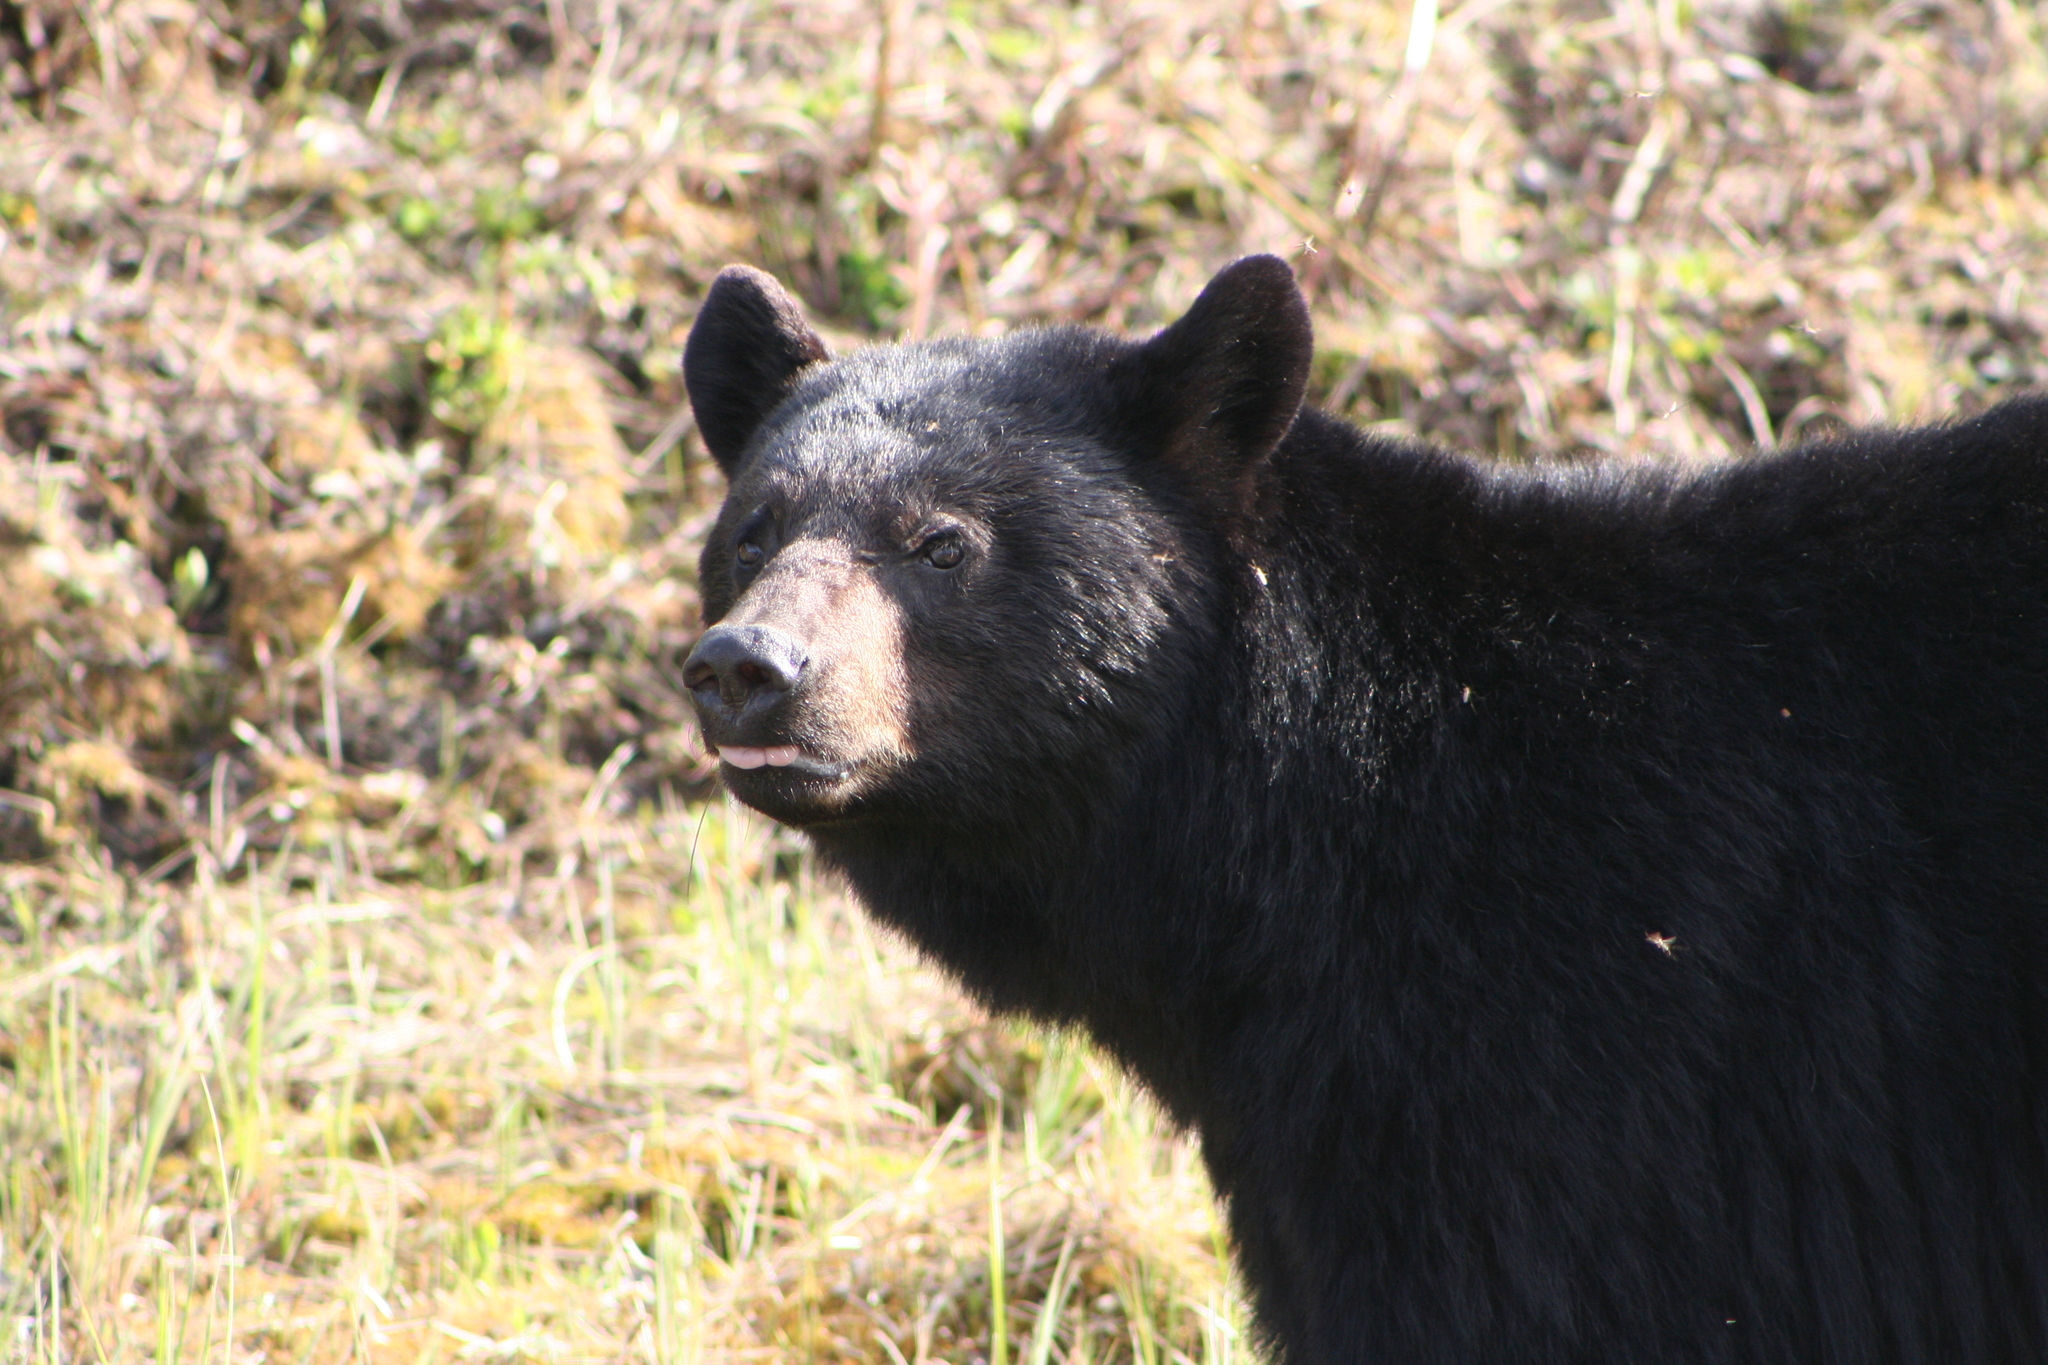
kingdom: Animalia
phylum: Chordata
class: Mammalia
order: Carnivora
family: Ursidae
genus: Ursus
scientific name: Ursus americanus
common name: American black bear
